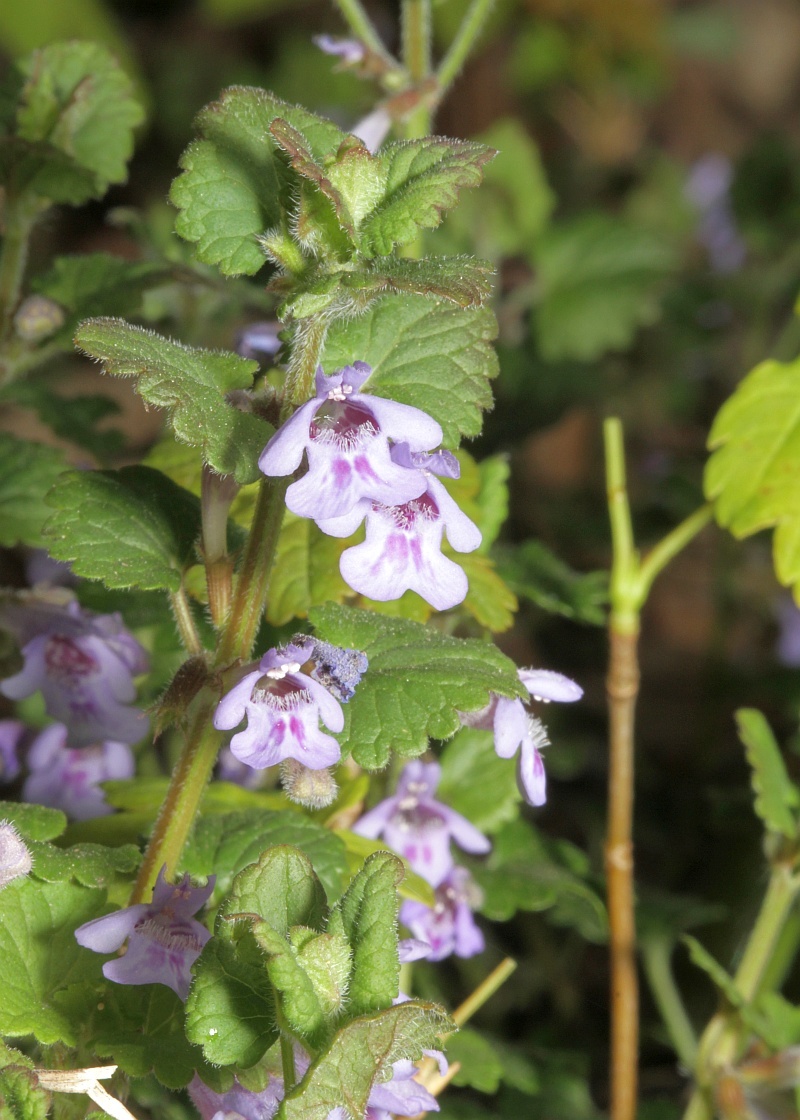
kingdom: Plantae
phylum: Tracheophyta
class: Magnoliopsida
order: Lamiales
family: Lamiaceae
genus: Glechoma
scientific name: Glechoma hederacea
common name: Ground ivy
